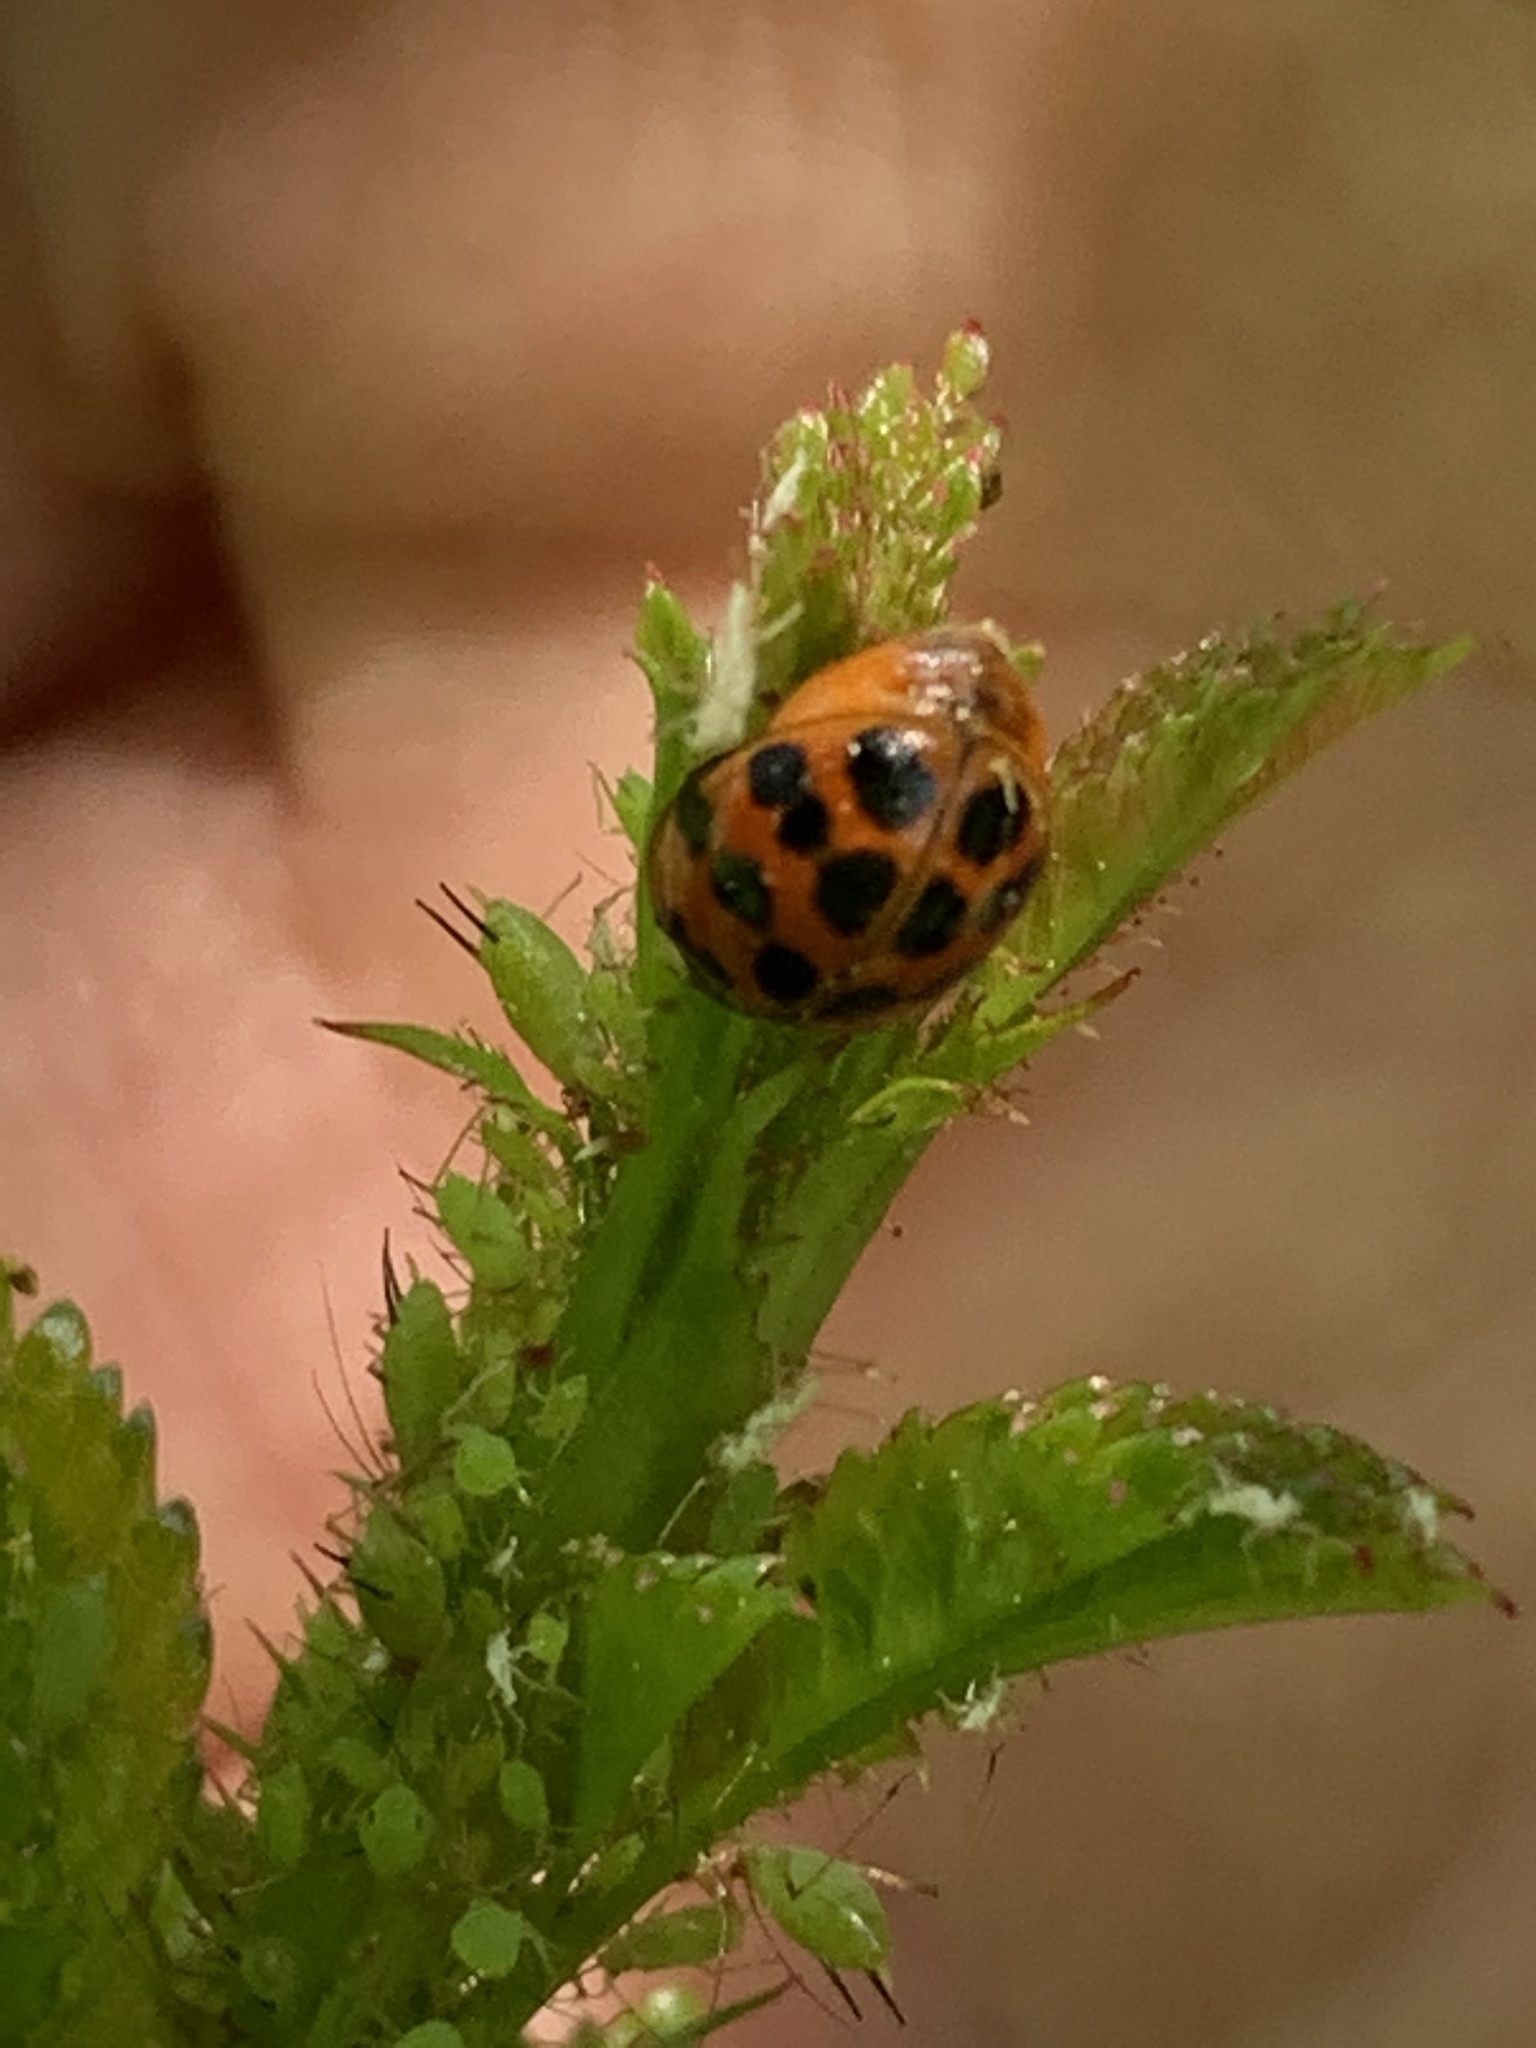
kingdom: Animalia
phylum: Arthropoda
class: Insecta
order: Coleoptera
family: Coccinellidae
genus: Harmonia
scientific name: Harmonia axyridis
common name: Harlequin ladybird
